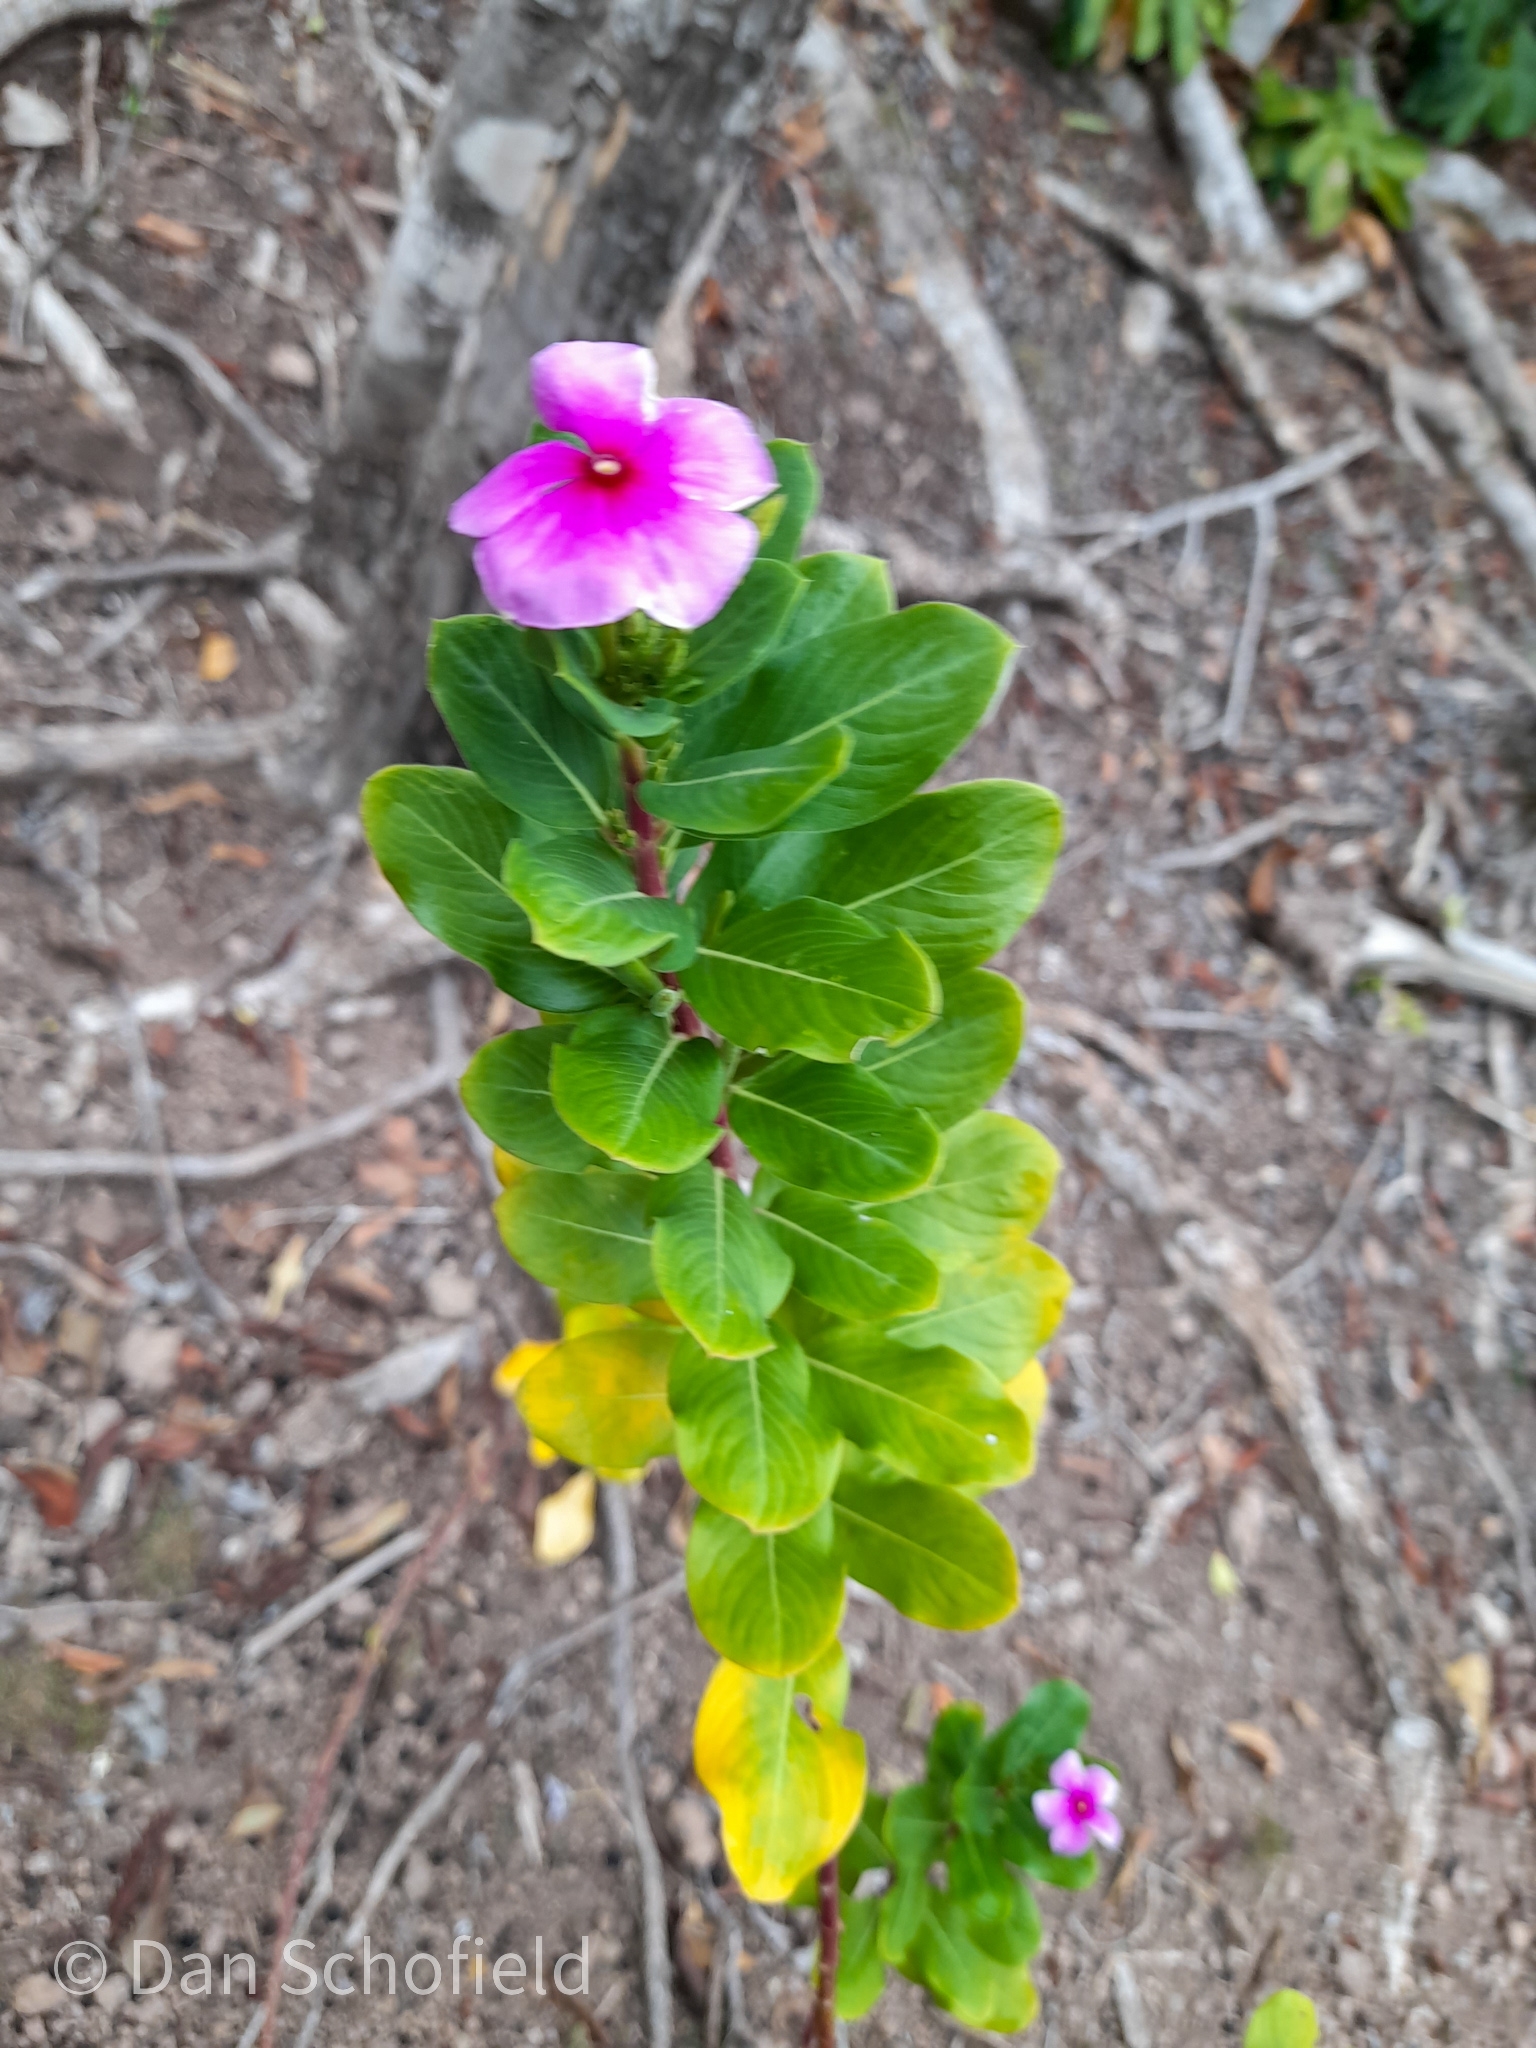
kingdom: Plantae
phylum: Tracheophyta
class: Magnoliopsida
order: Gentianales
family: Apocynaceae
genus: Catharanthus
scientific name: Catharanthus roseus
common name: Madagascar periwinkle
